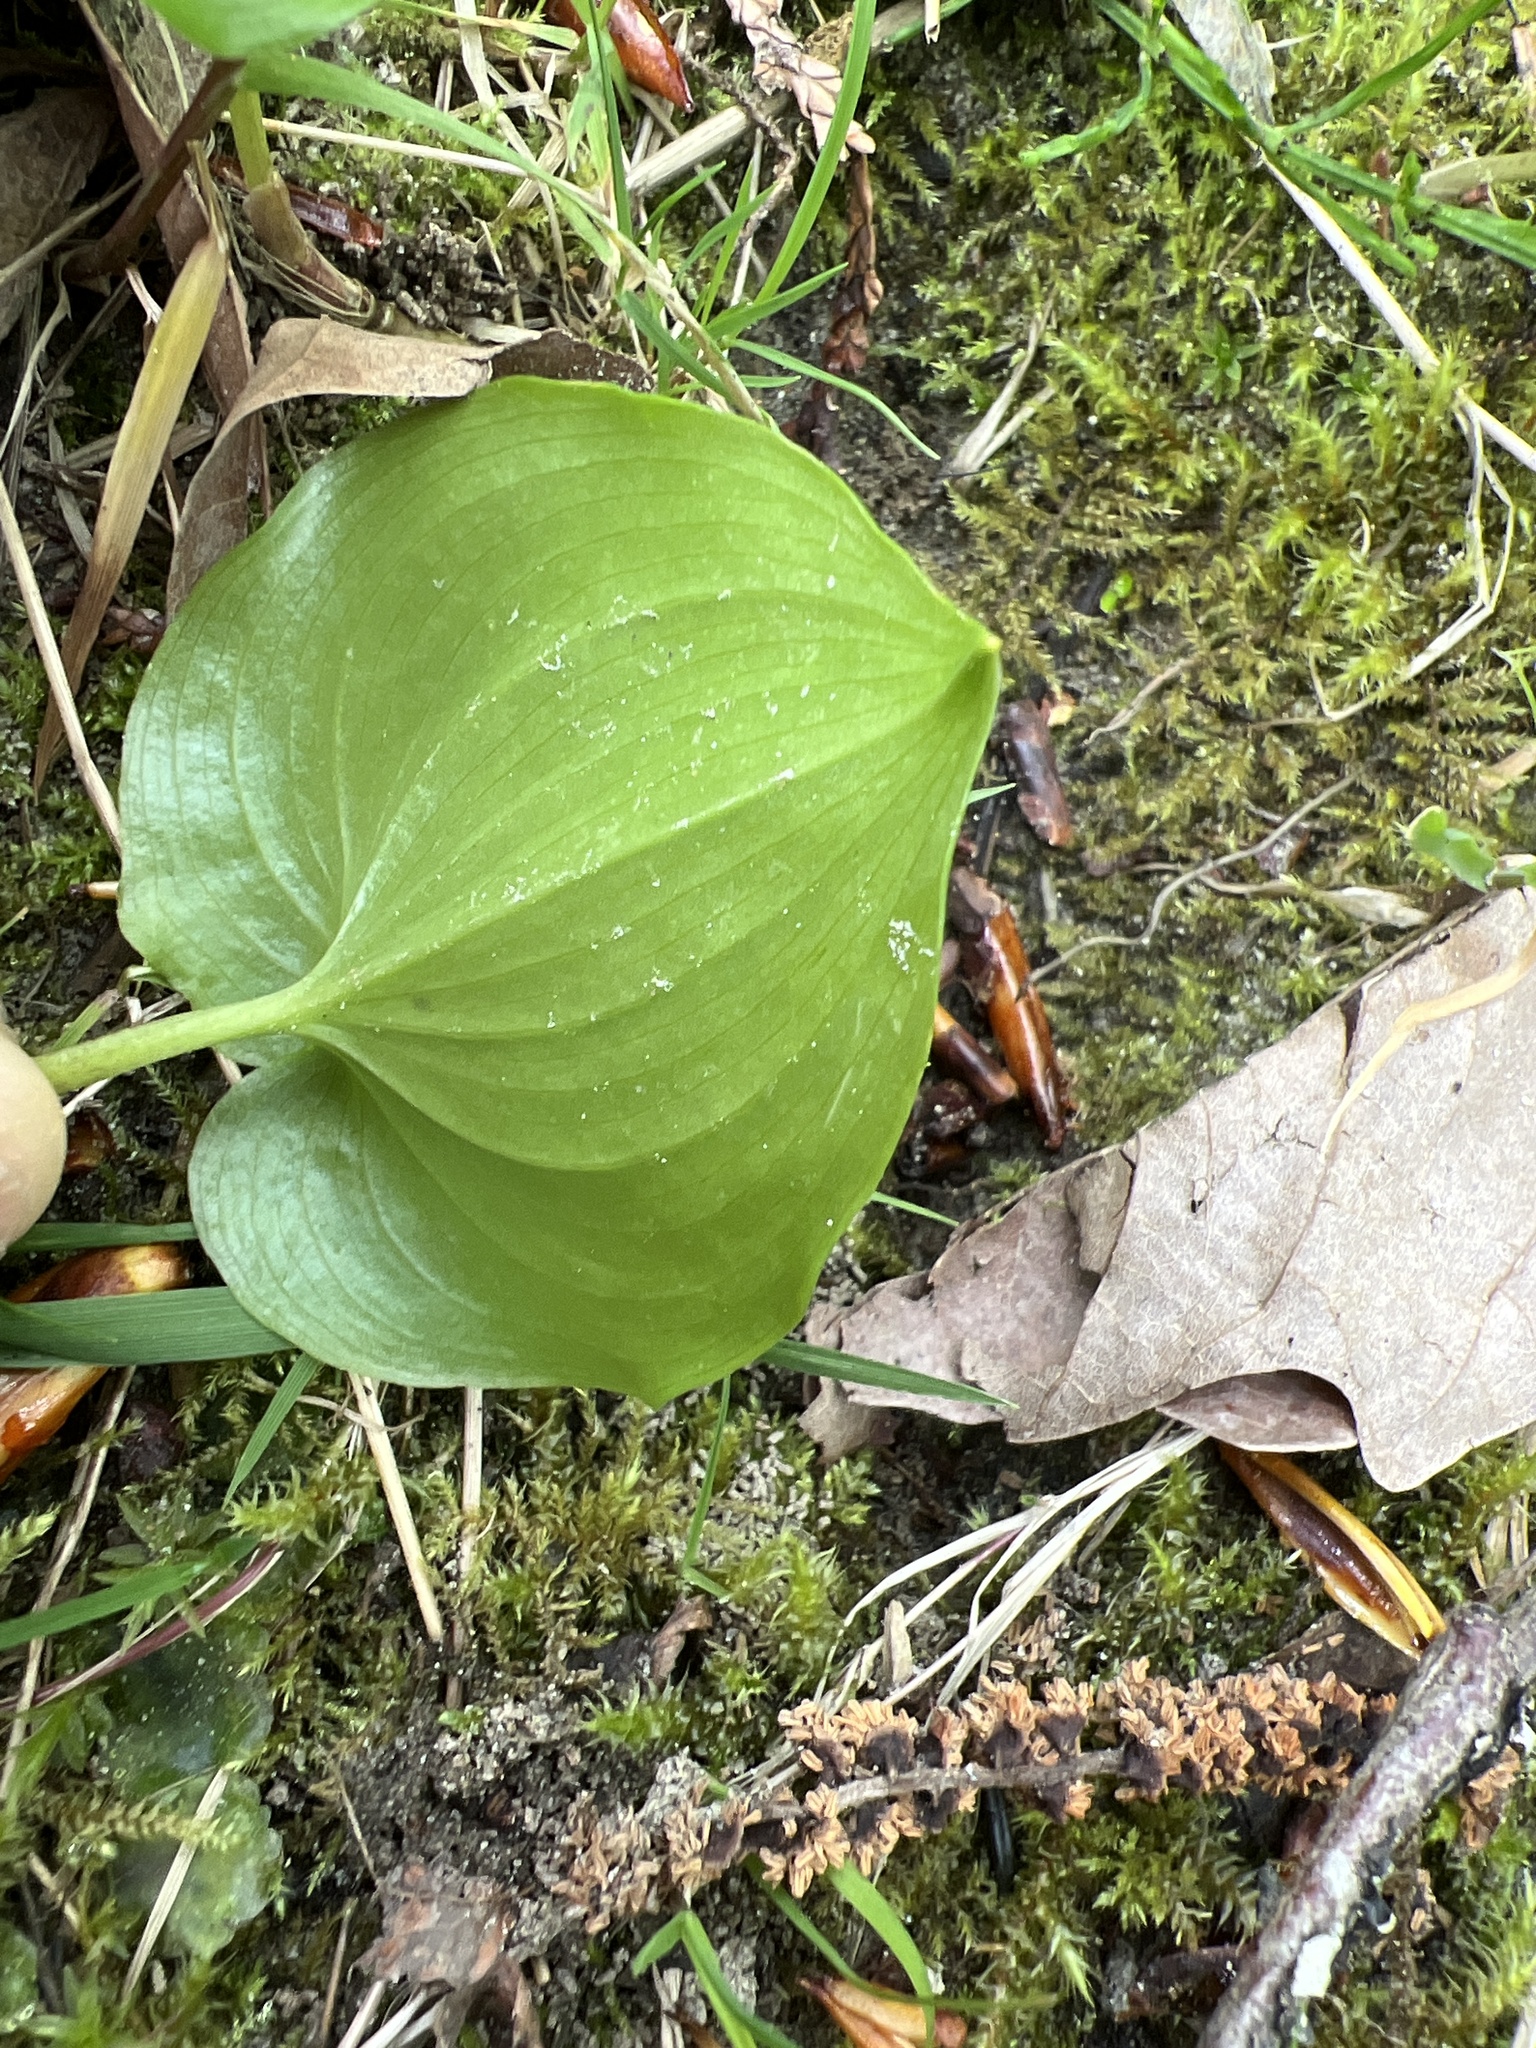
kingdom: Plantae
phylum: Tracheophyta
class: Liliopsida
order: Asparagales
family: Asparagaceae
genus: Maianthemum
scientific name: Maianthemum dilatatum
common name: False lily-of-the-valley
